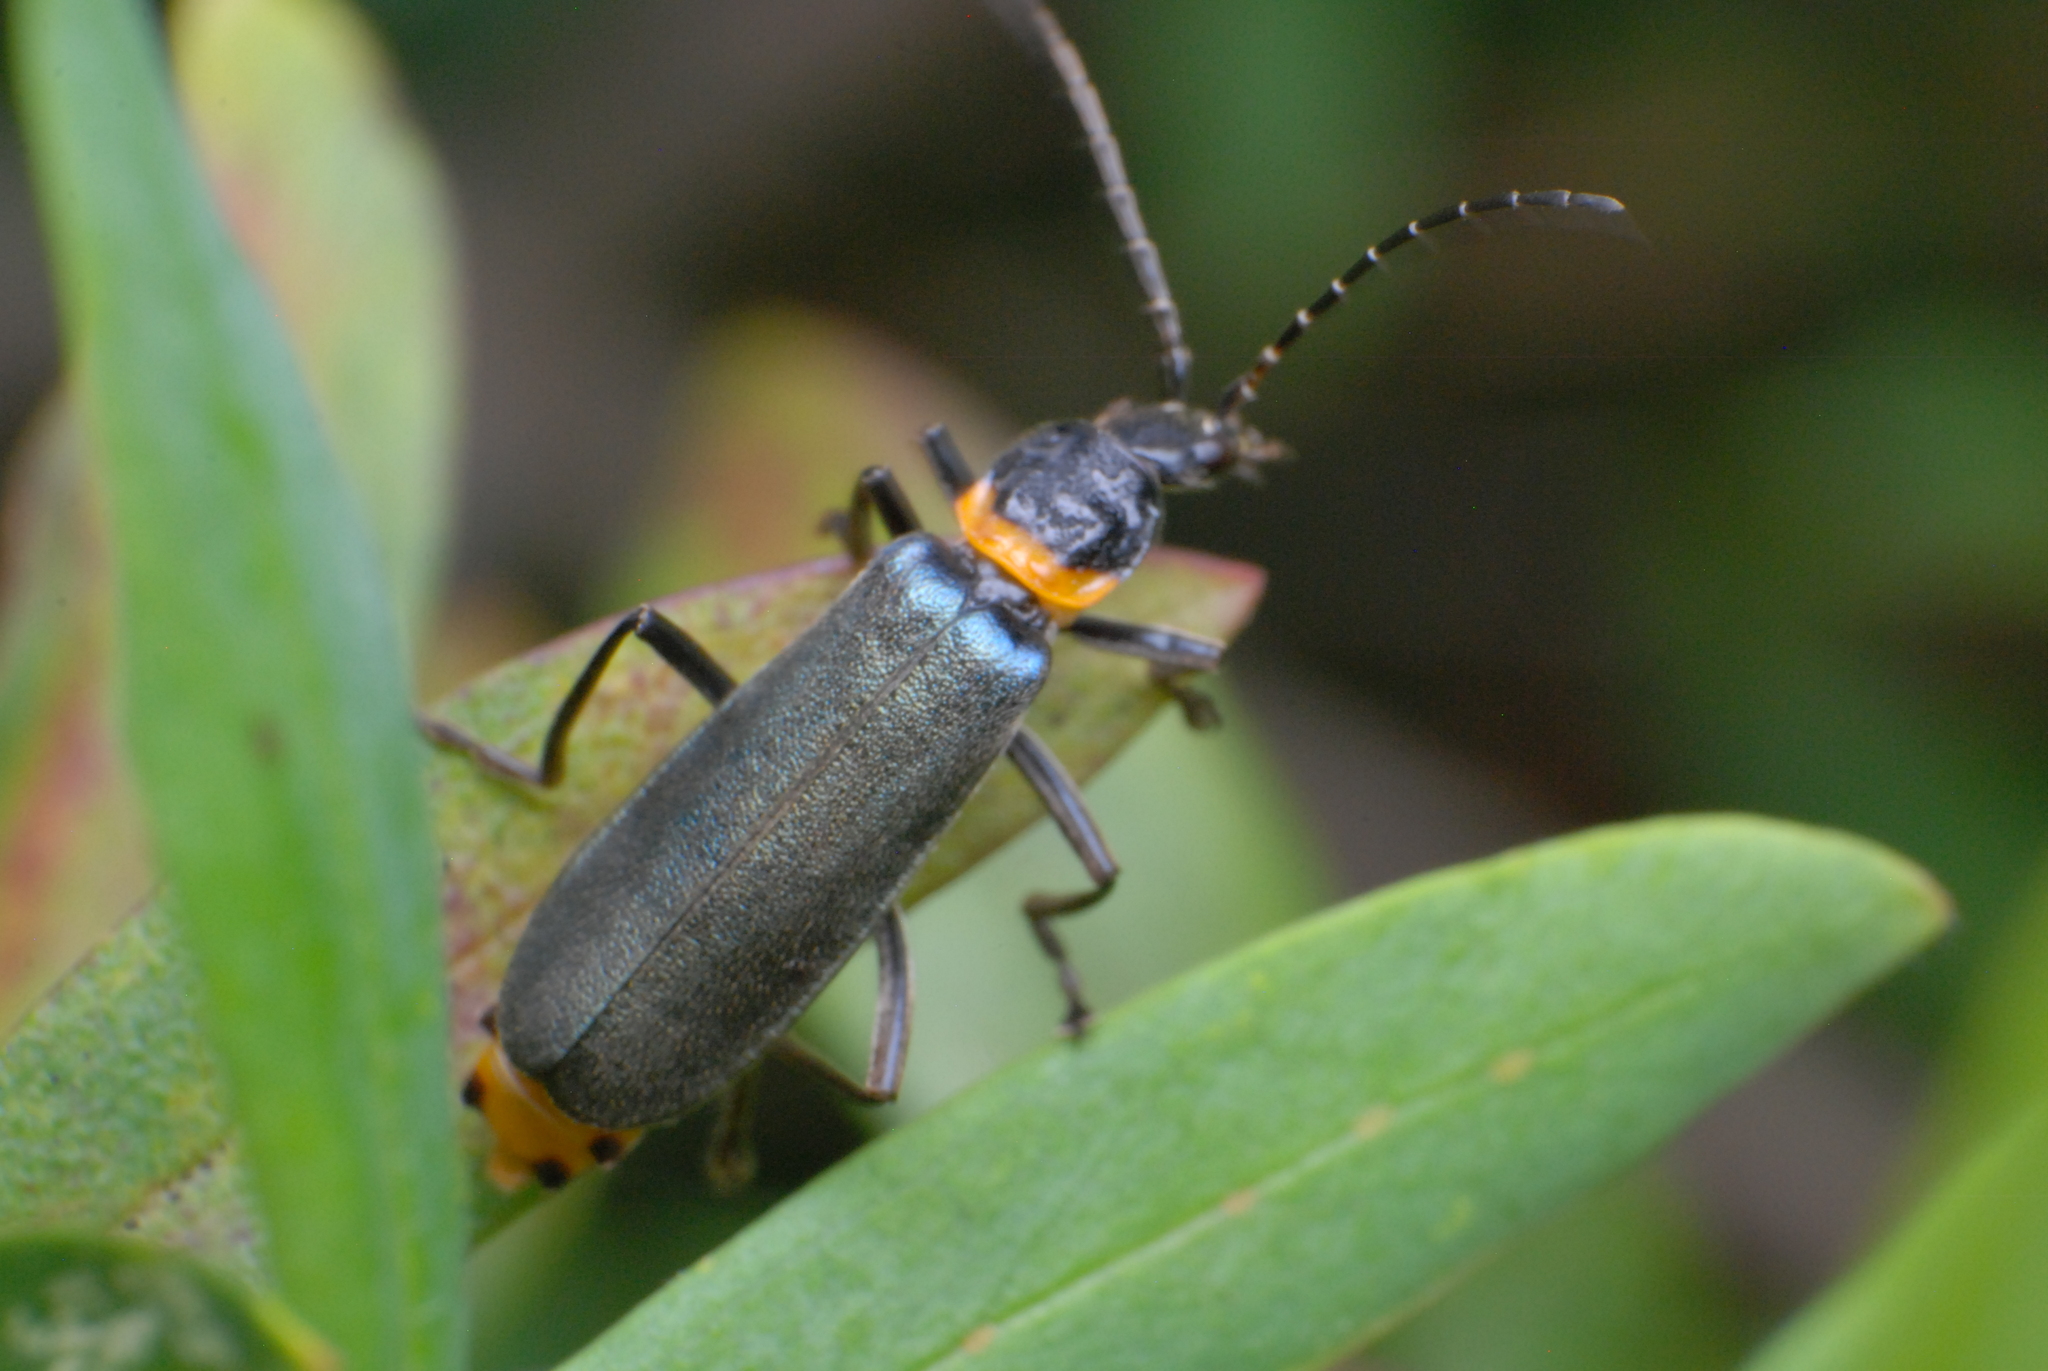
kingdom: Animalia
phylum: Arthropoda
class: Insecta
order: Coleoptera
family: Cantharidae
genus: Chauliognathus
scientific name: Chauliognathus
